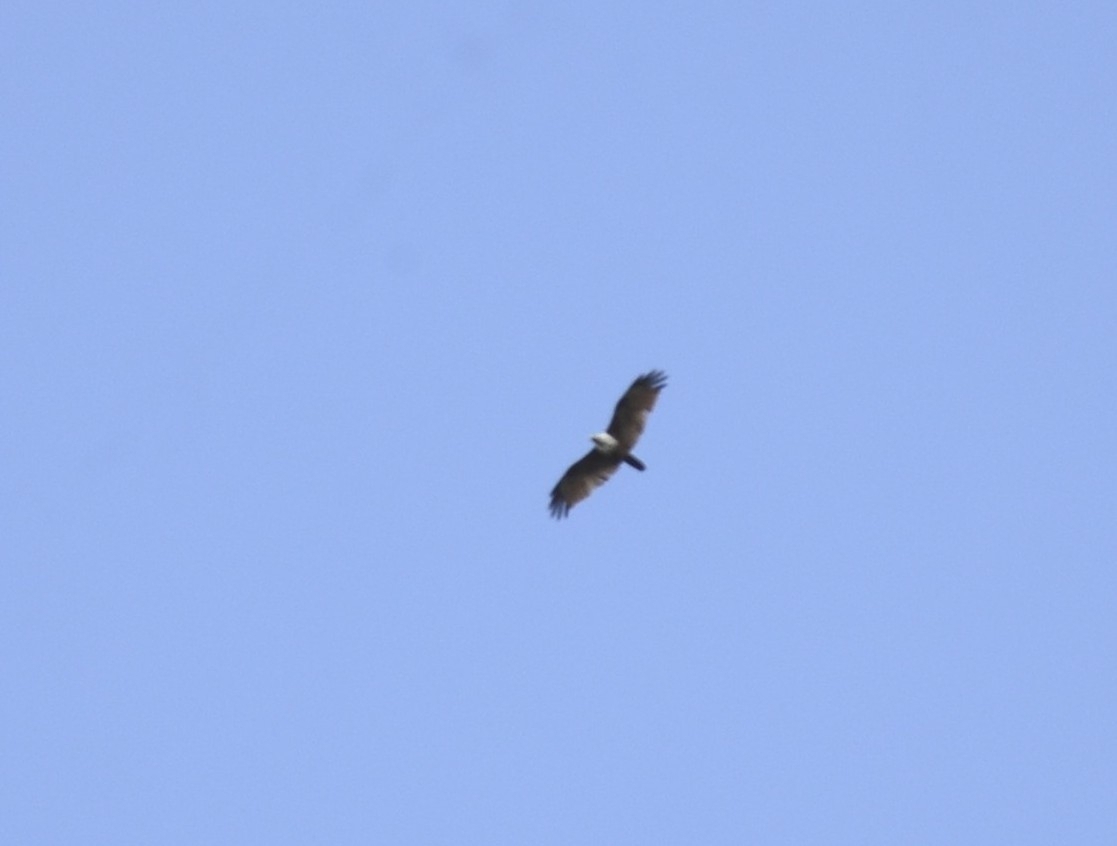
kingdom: Animalia
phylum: Chordata
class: Aves
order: Accipitriformes
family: Accipitridae
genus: Haliastur
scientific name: Haliastur indus
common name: Brahminy kite
